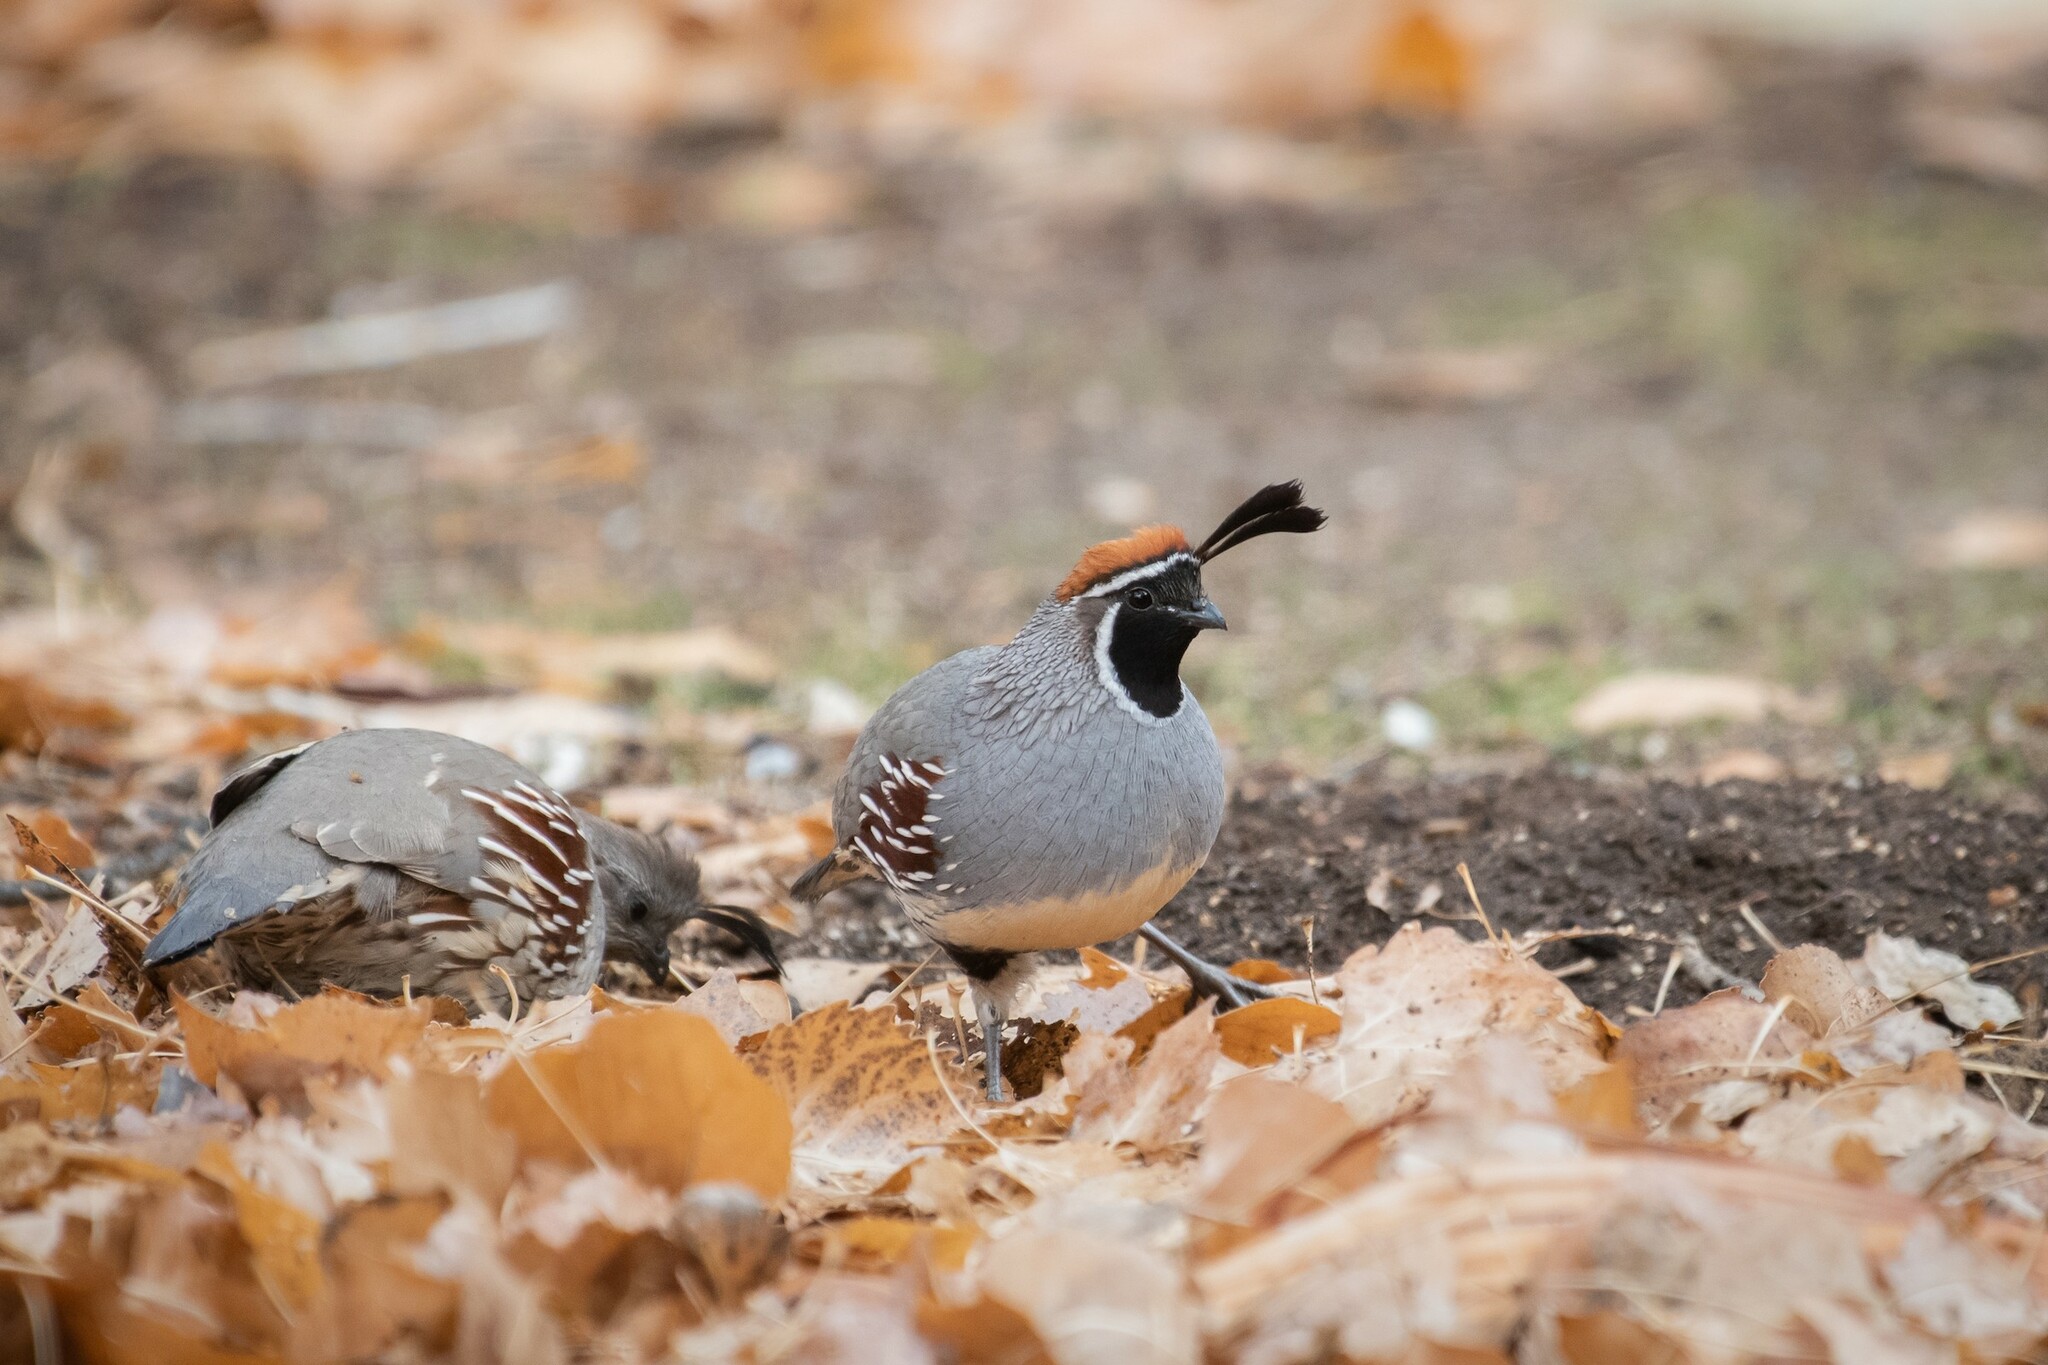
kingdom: Animalia
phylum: Chordata
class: Aves
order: Galliformes
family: Odontophoridae
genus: Callipepla
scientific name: Callipepla gambelii
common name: Gambel's quail
